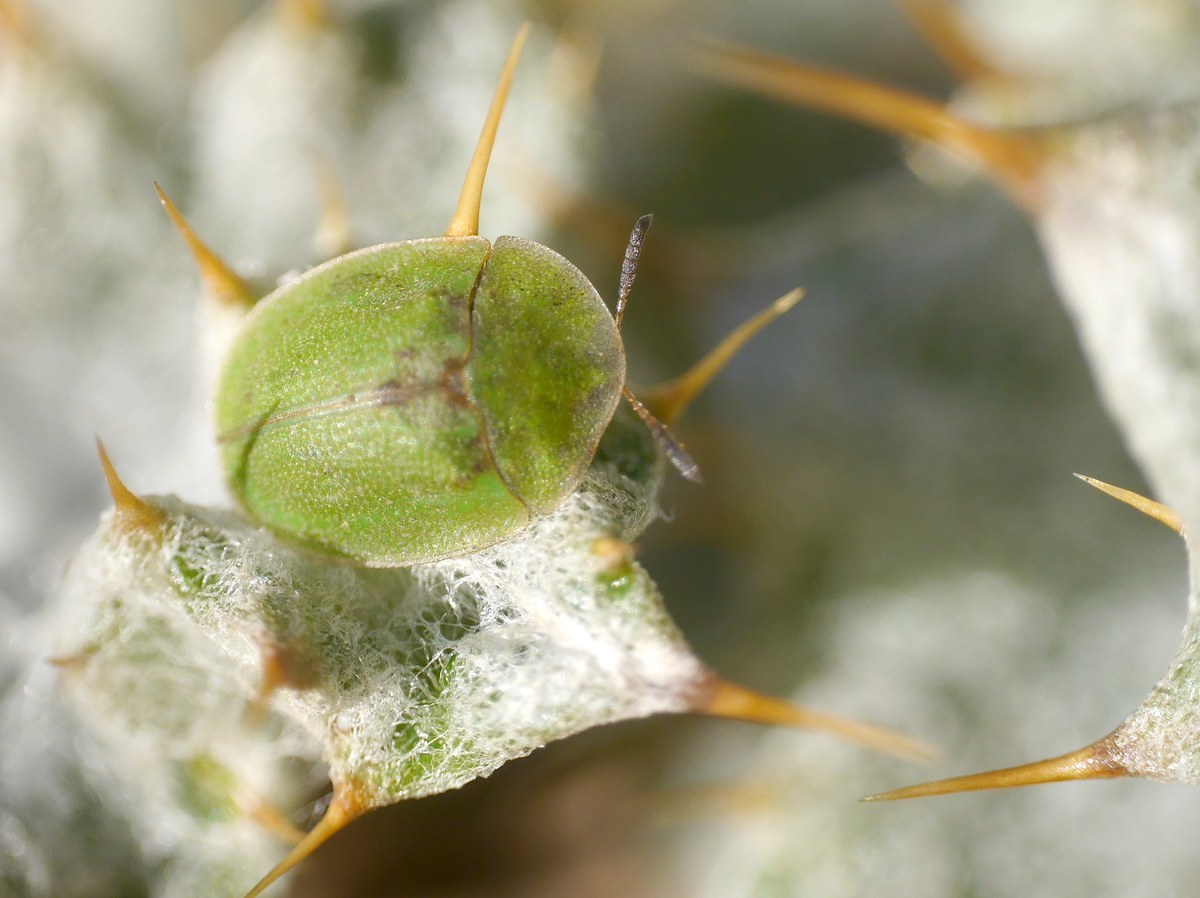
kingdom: Animalia
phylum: Arthropoda
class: Insecta
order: Coleoptera
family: Chrysomelidae
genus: Cassida
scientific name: Cassida rubiginosa
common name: Thistle tortoise beetle
